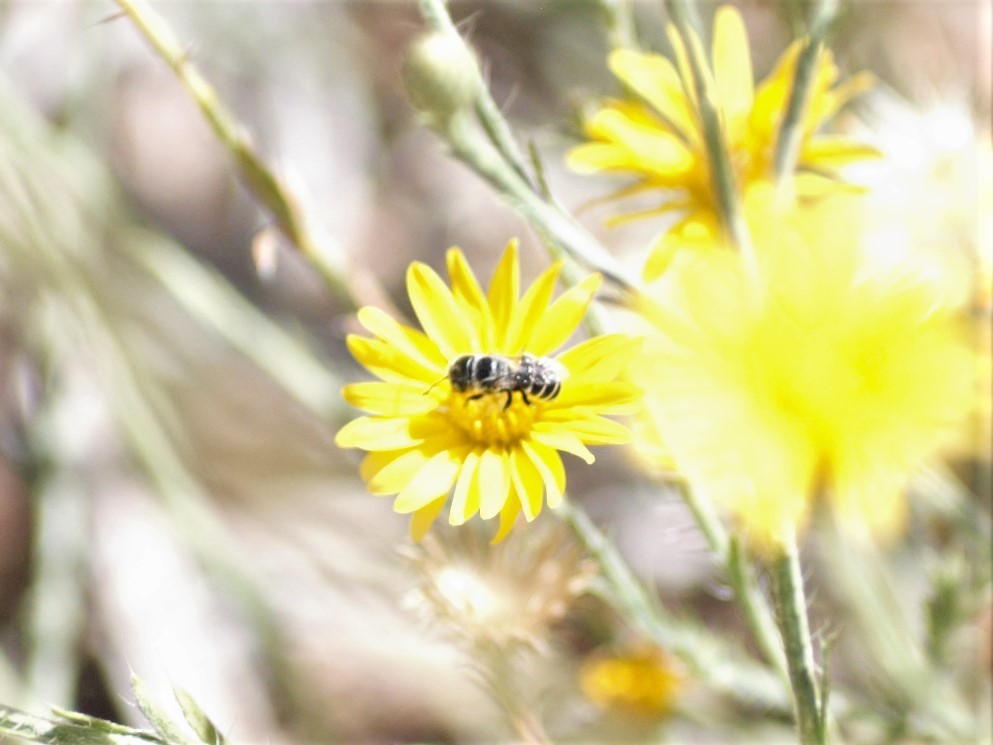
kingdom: Animalia
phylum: Arthropoda
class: Insecta
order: Hymenoptera
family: Megachilidae
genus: Ashmeadiella
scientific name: Ashmeadiella
